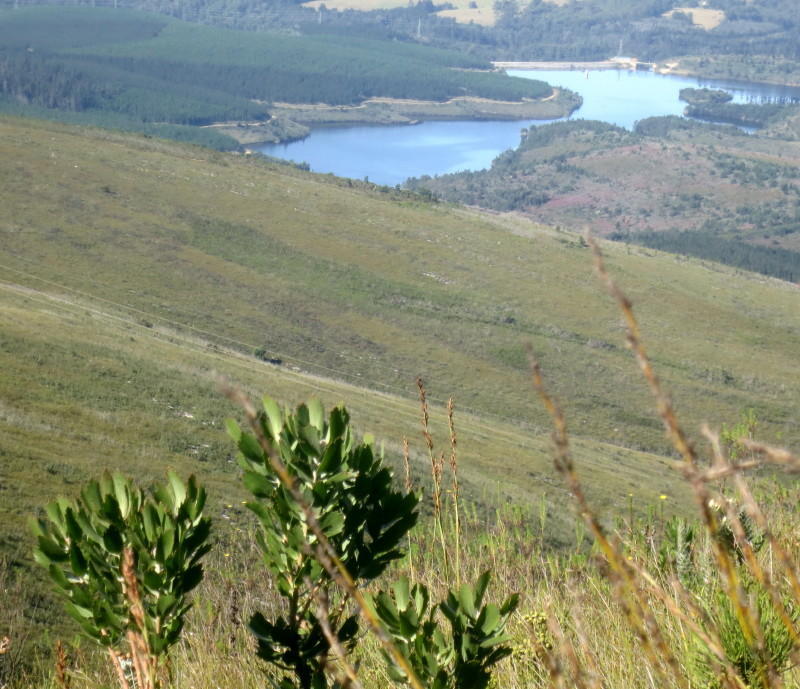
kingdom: Plantae
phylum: Tracheophyta
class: Magnoliopsida
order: Proteales
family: Proteaceae
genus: Leucospermum
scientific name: Leucospermum glabrum
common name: Outeniqua pincushion
